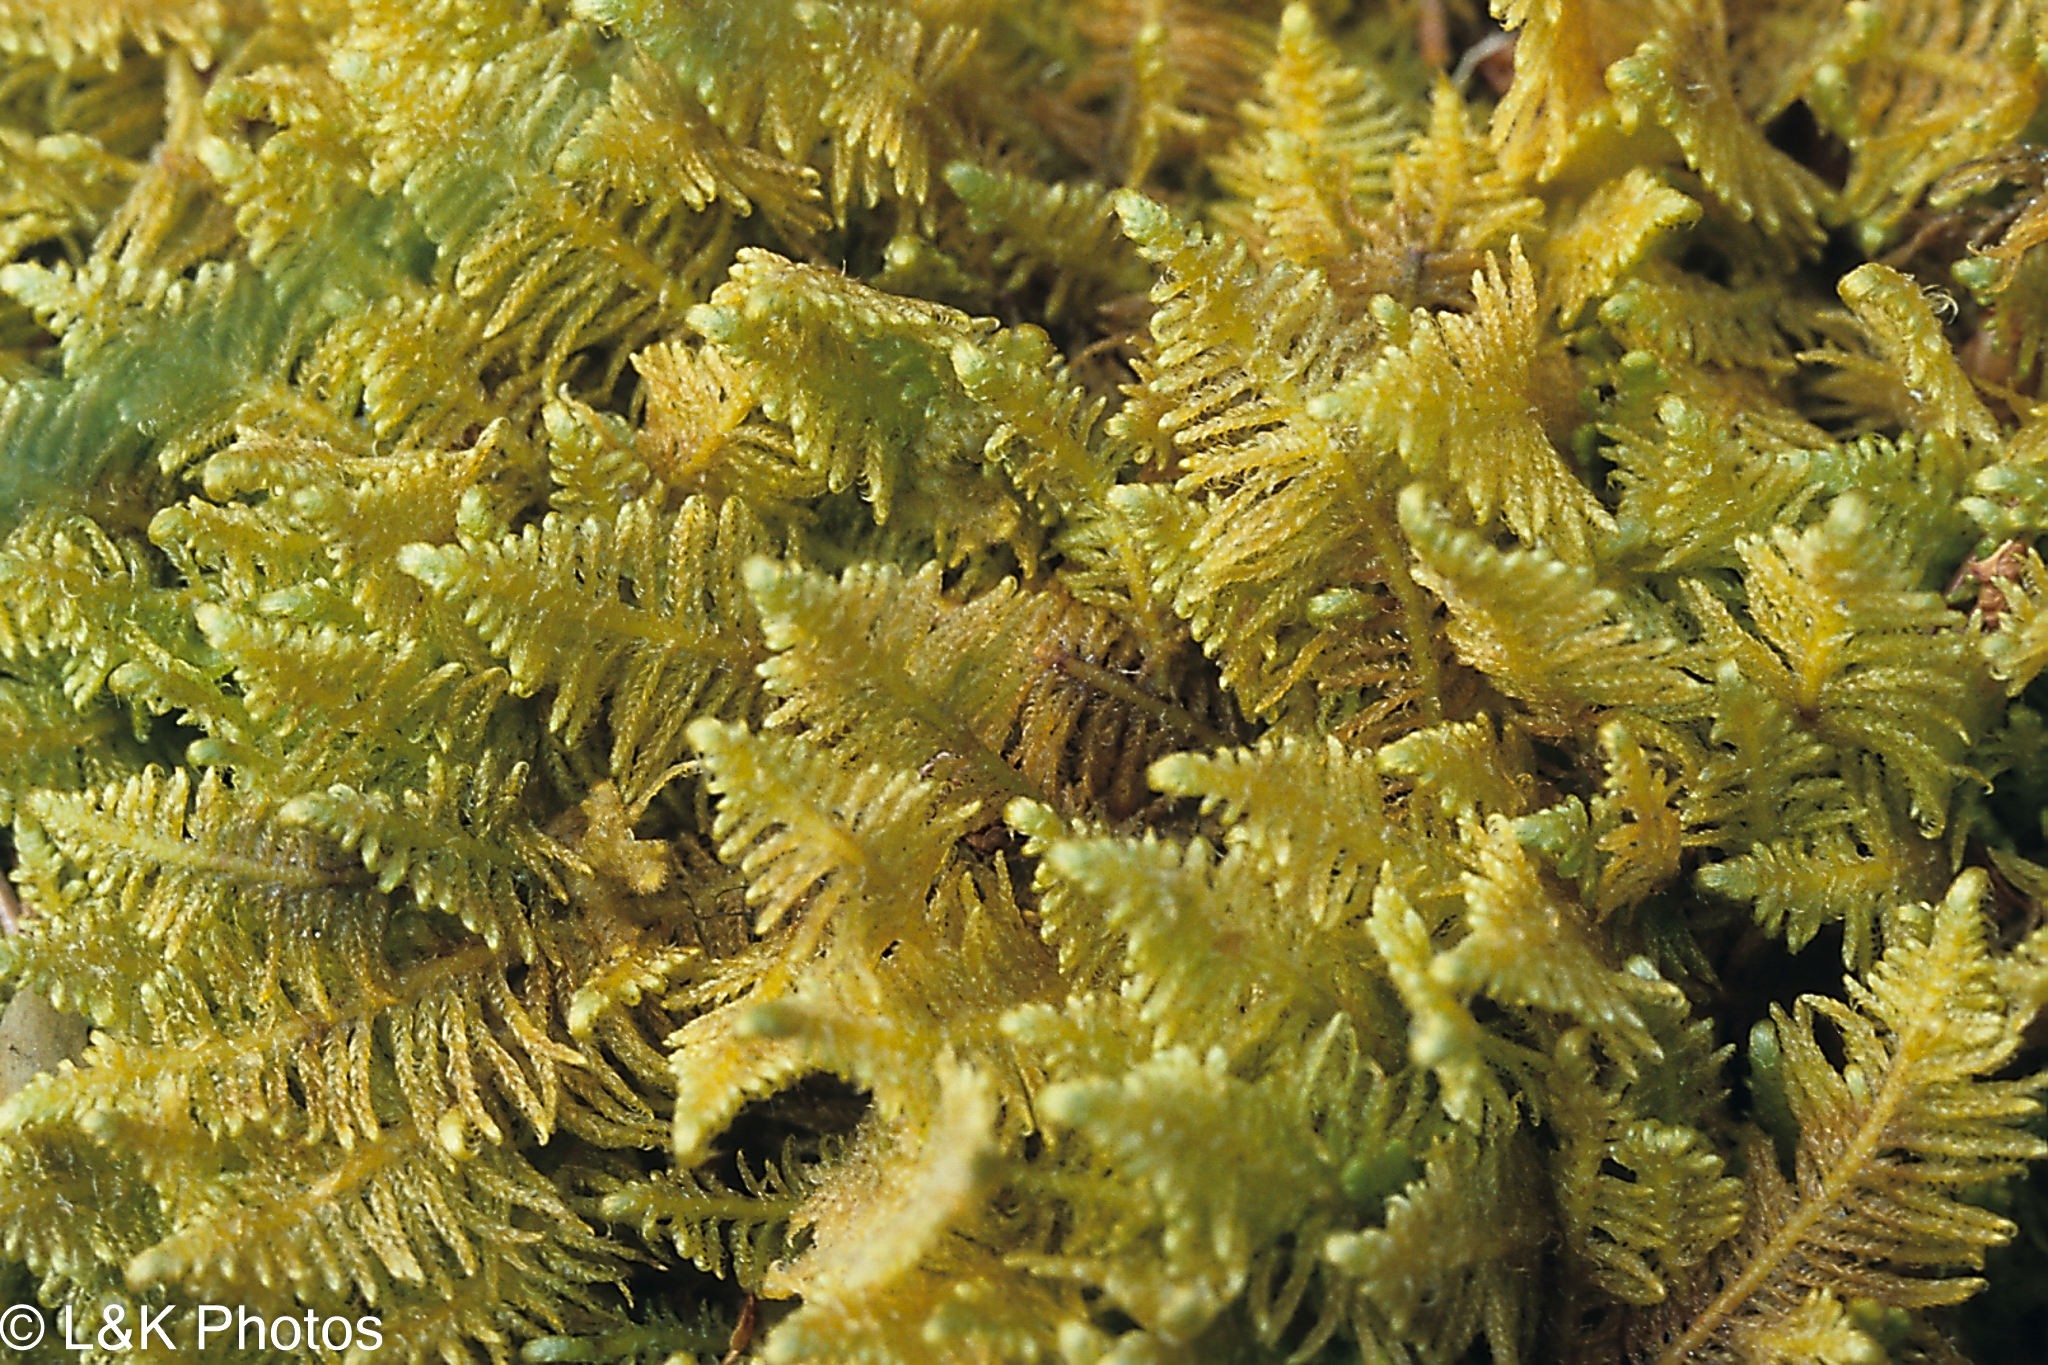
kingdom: Plantae
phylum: Bryophyta
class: Bryopsida
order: Hypnales
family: Pylaisiaceae
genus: Ptilium
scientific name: Ptilium crista-castrensis
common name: Knight's plume moss
